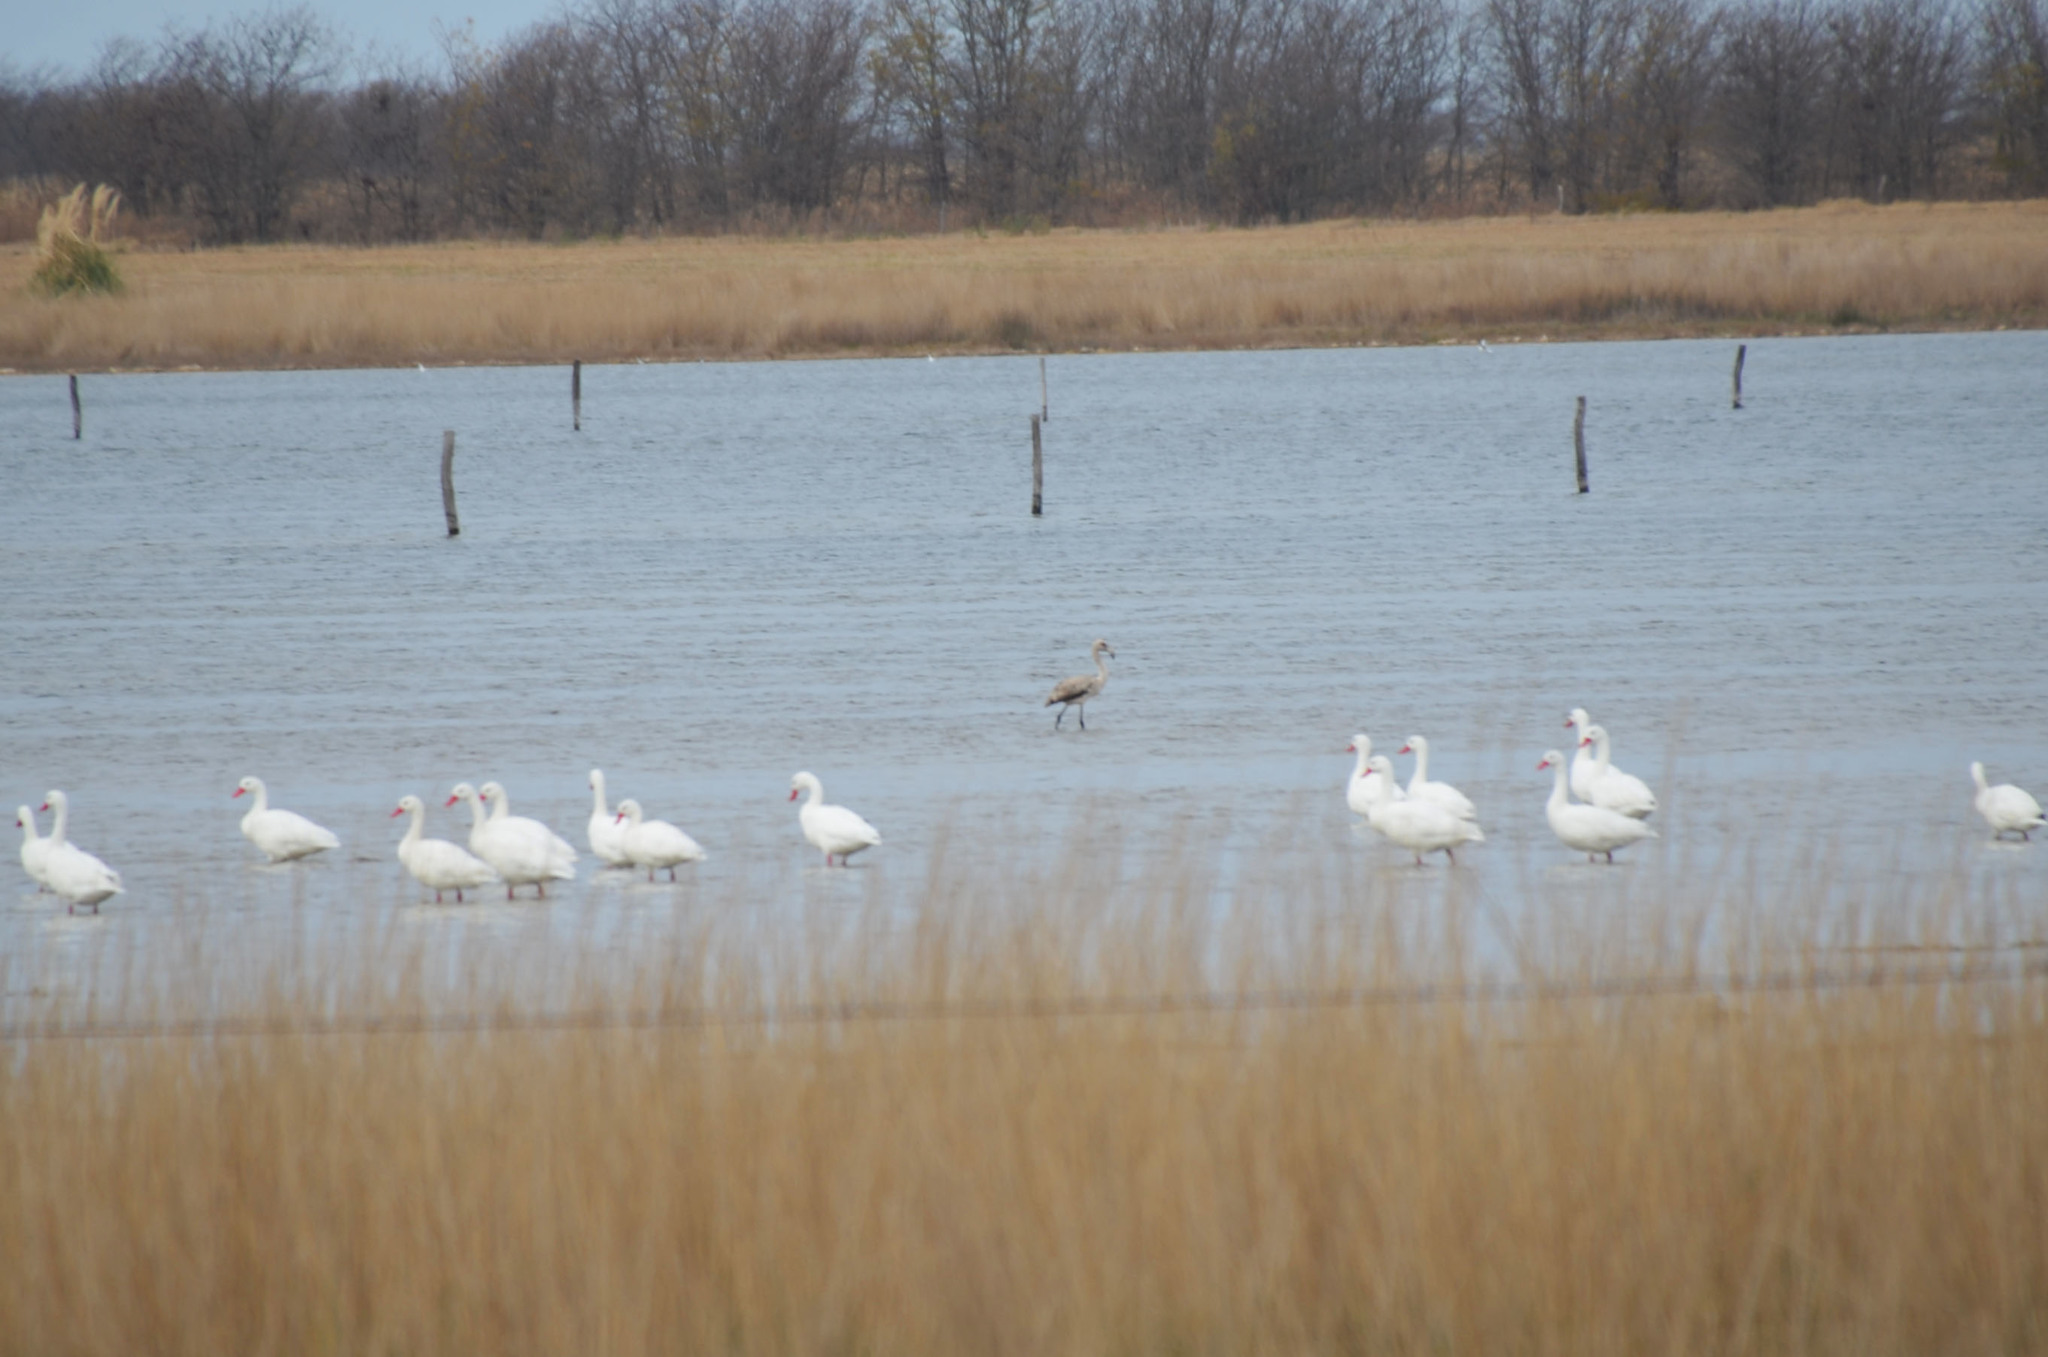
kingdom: Animalia
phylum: Chordata
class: Aves
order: Phoenicopteriformes
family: Phoenicopteridae
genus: Phoenicopterus
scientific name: Phoenicopterus chilensis
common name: Chilean flamingo
